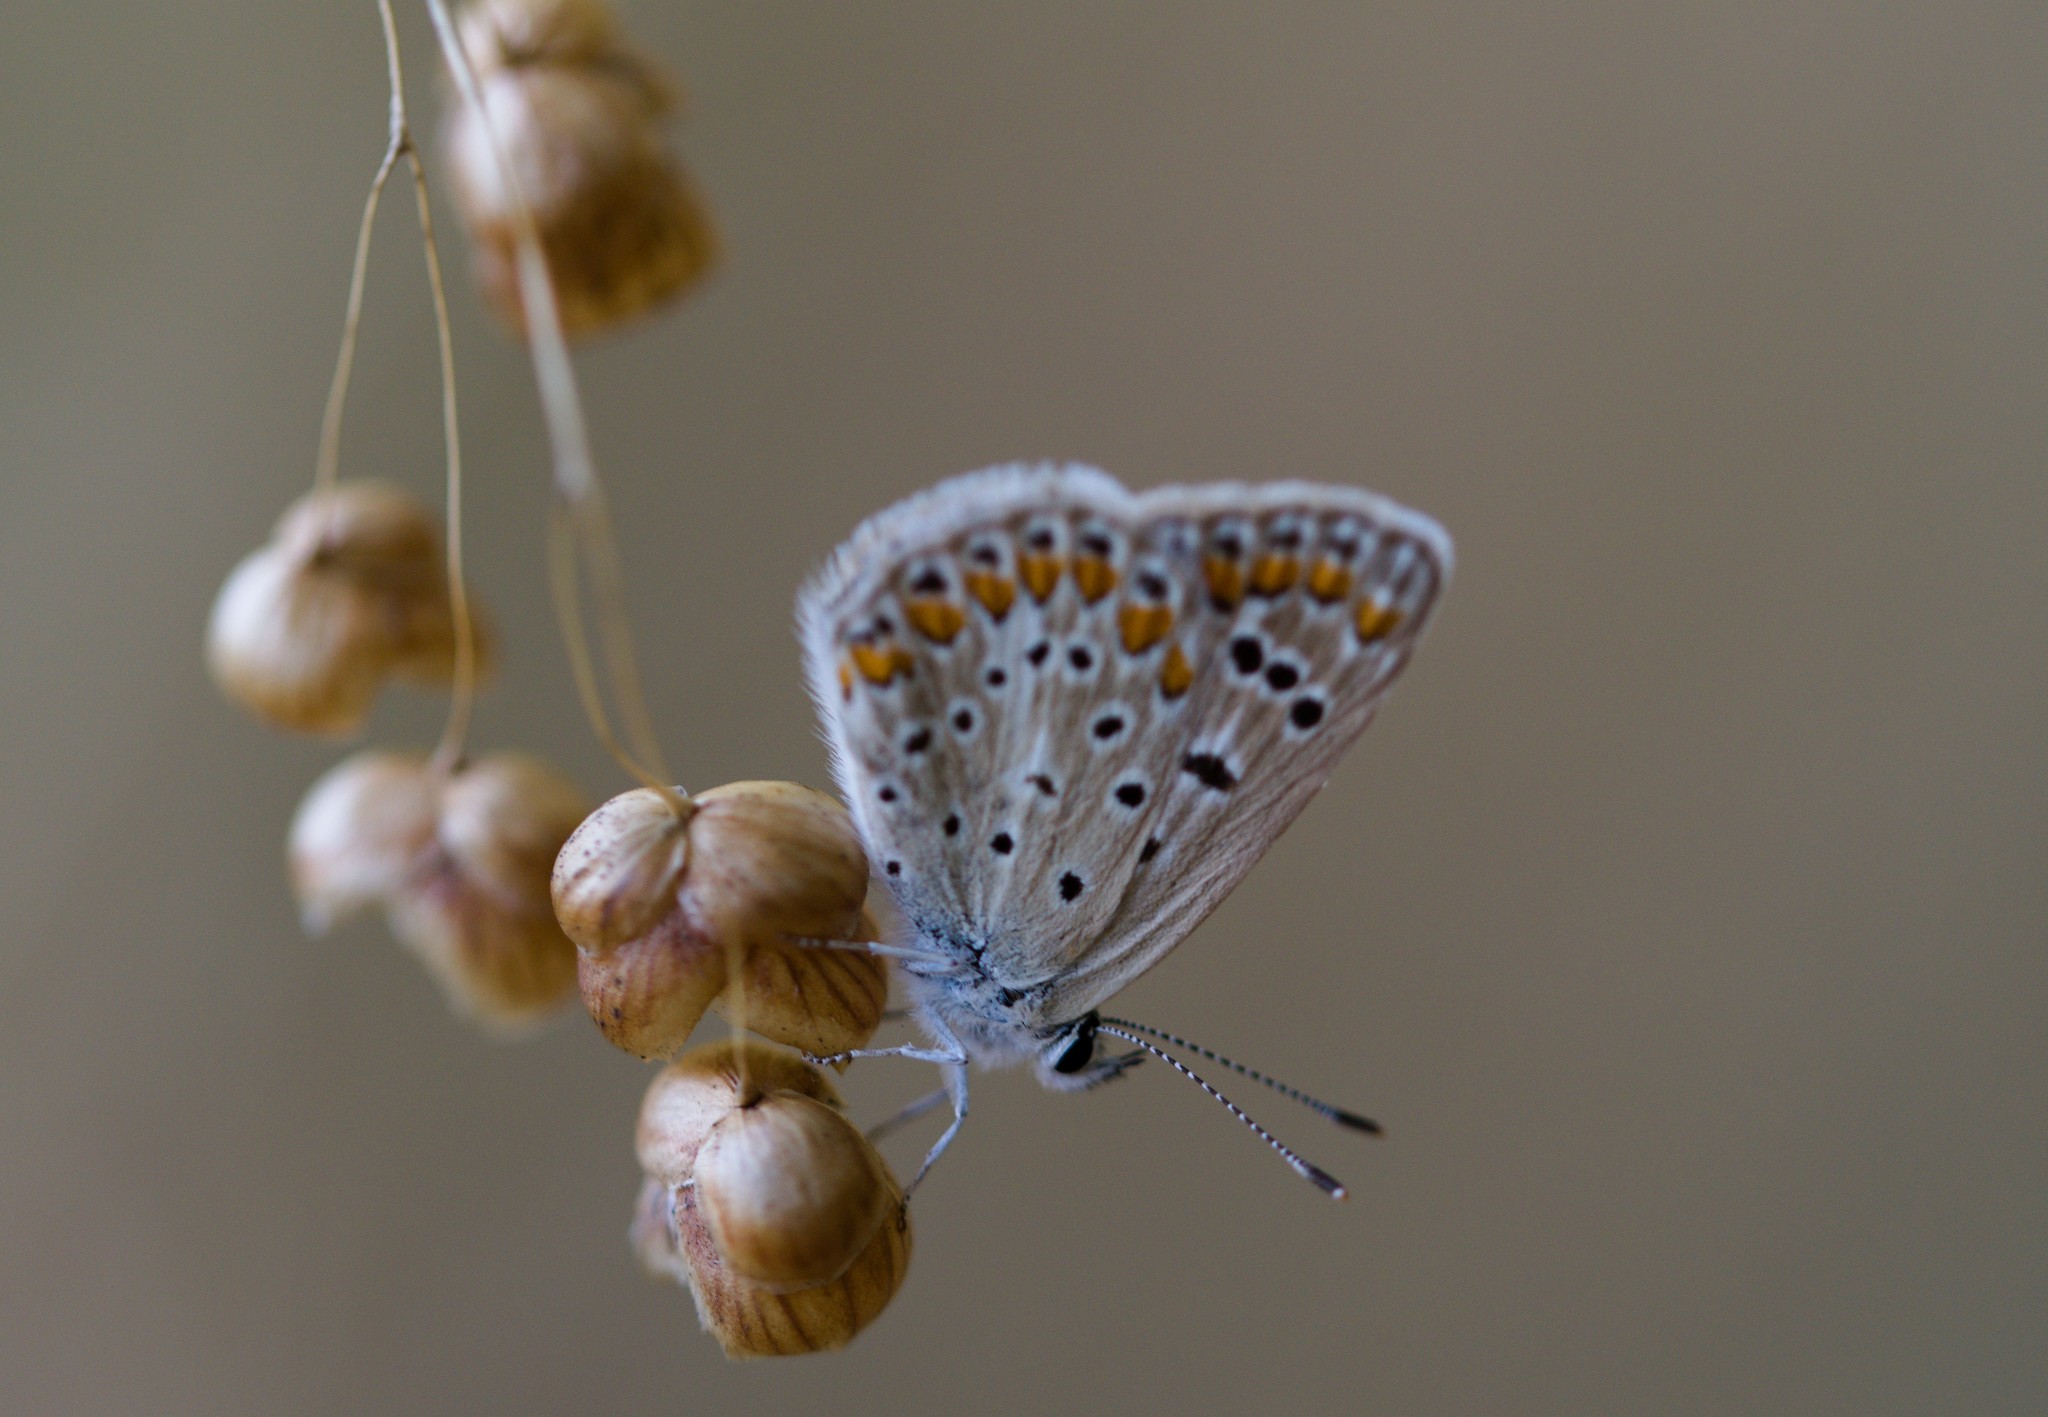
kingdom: Animalia
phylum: Arthropoda
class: Insecta
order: Lepidoptera
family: Lycaenidae
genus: Polyommatus
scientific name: Polyommatus icarus
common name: Common blue
